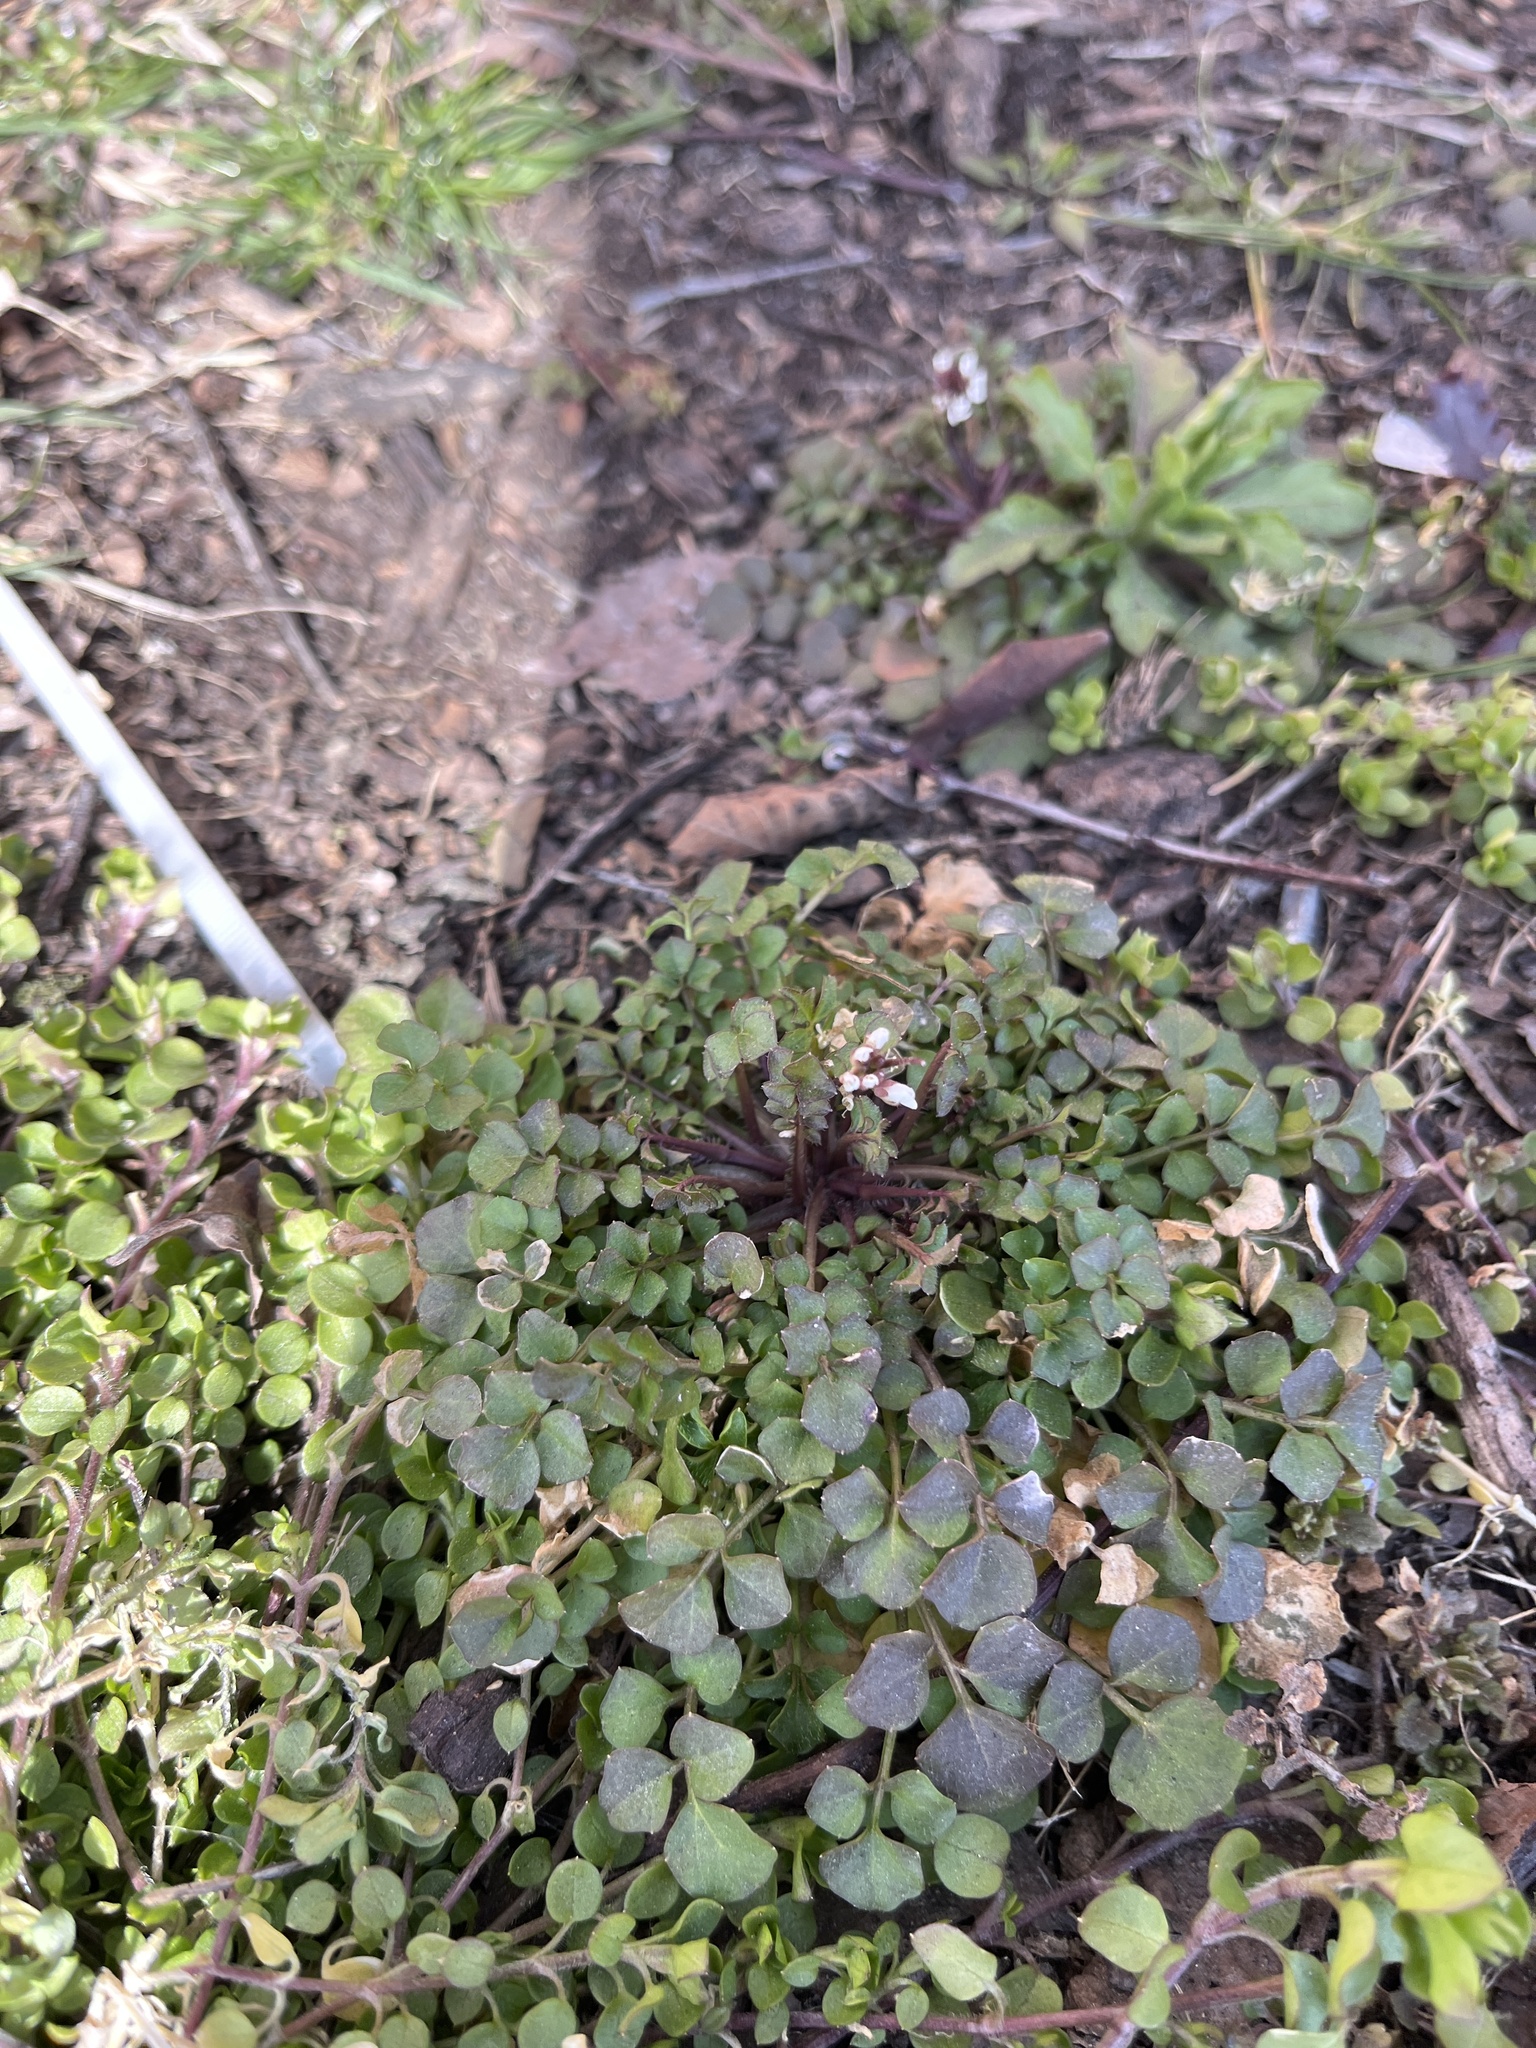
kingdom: Plantae
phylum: Tracheophyta
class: Magnoliopsida
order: Brassicales
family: Brassicaceae
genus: Cardamine
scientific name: Cardamine hirsuta
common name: Hairy bittercress
